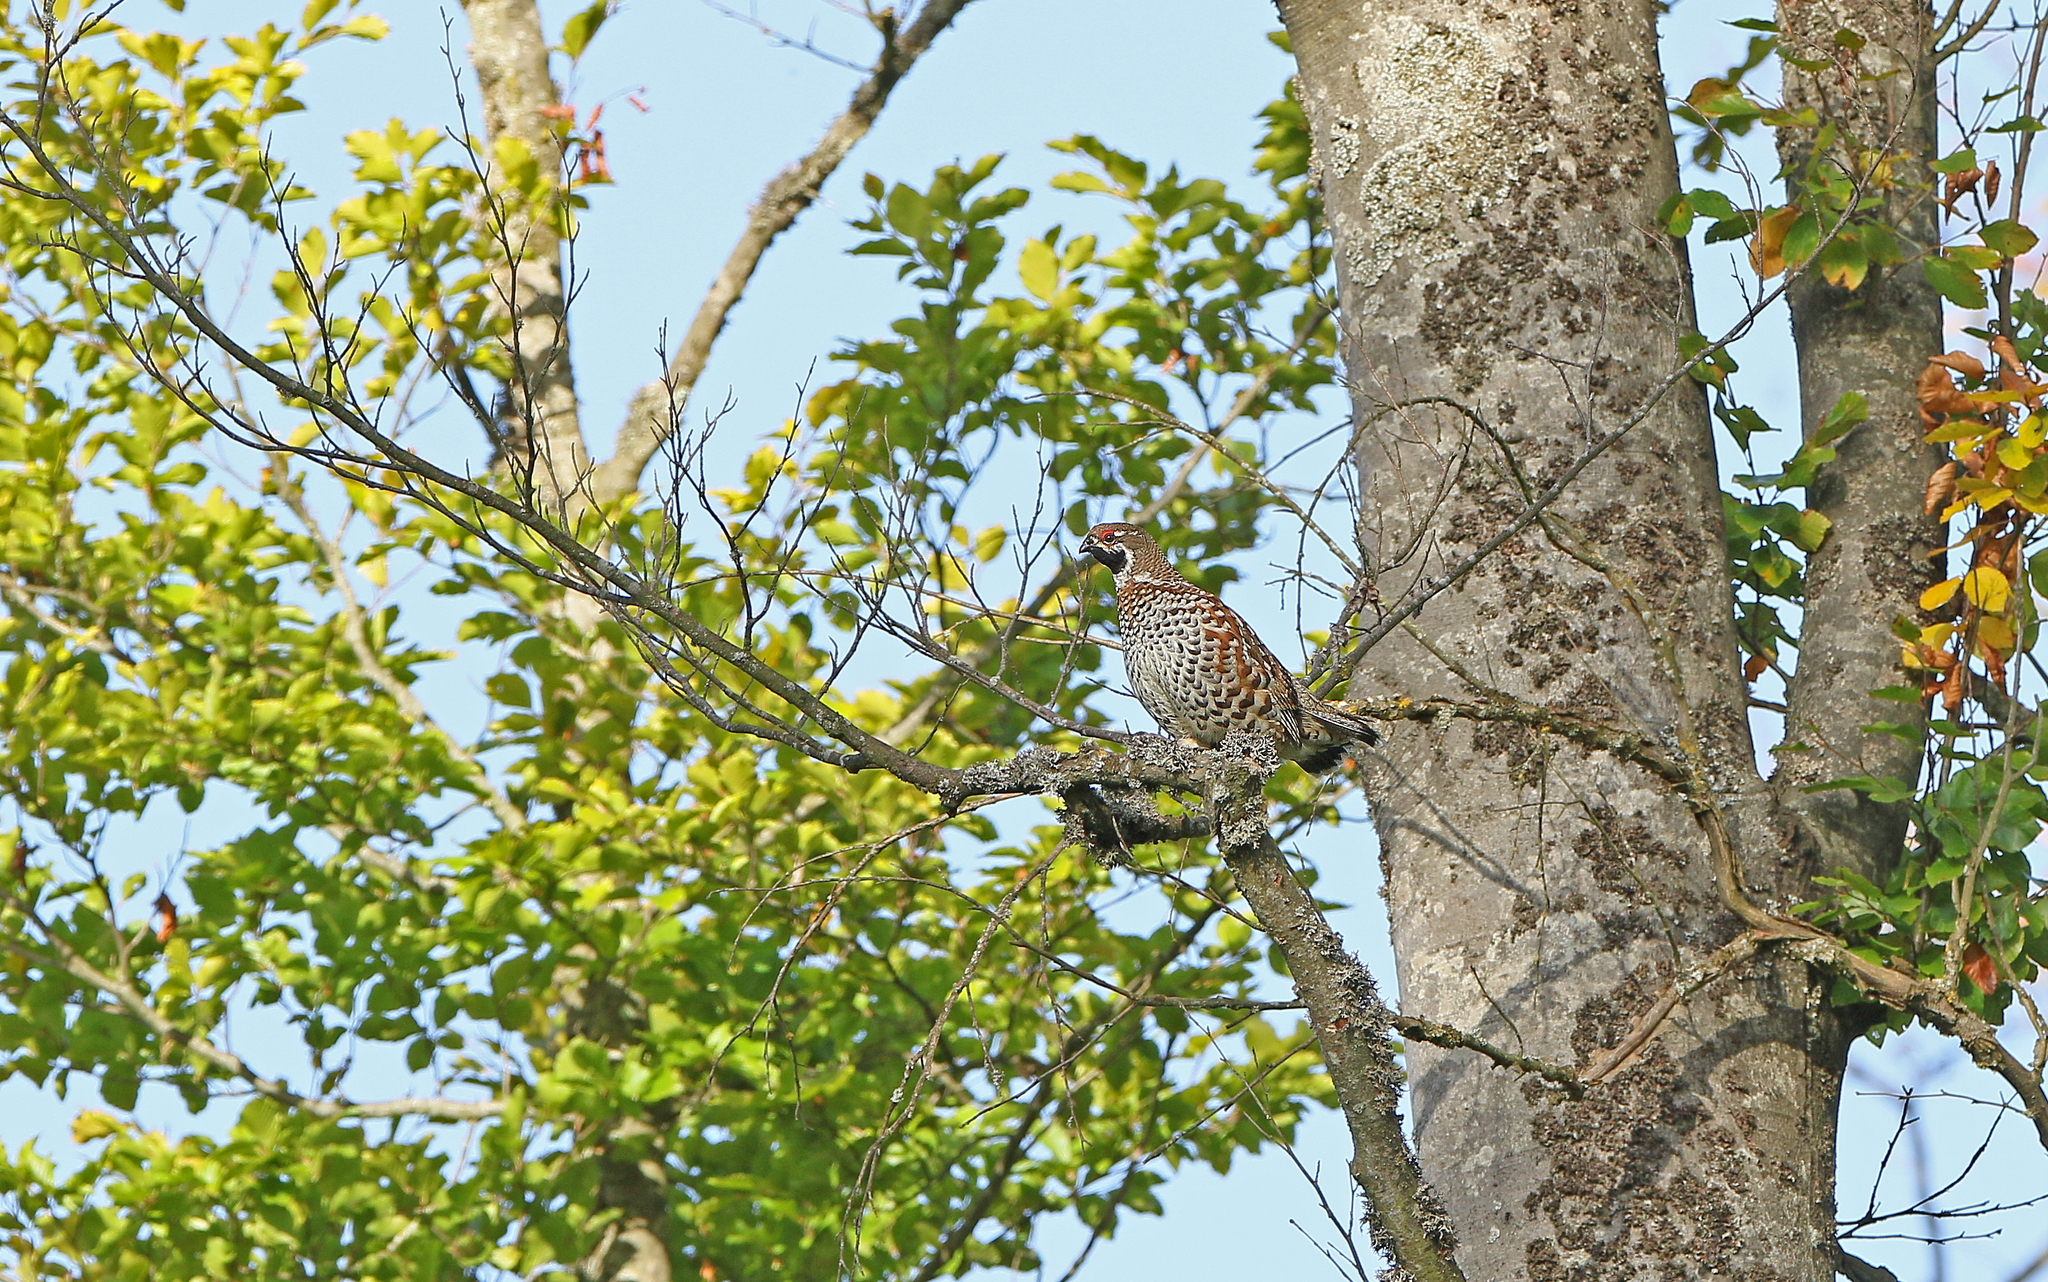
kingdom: Animalia
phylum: Chordata
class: Aves
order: Galliformes
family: Phasianidae
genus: Tetrastes
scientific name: Tetrastes bonasia
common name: Hazel grouse
